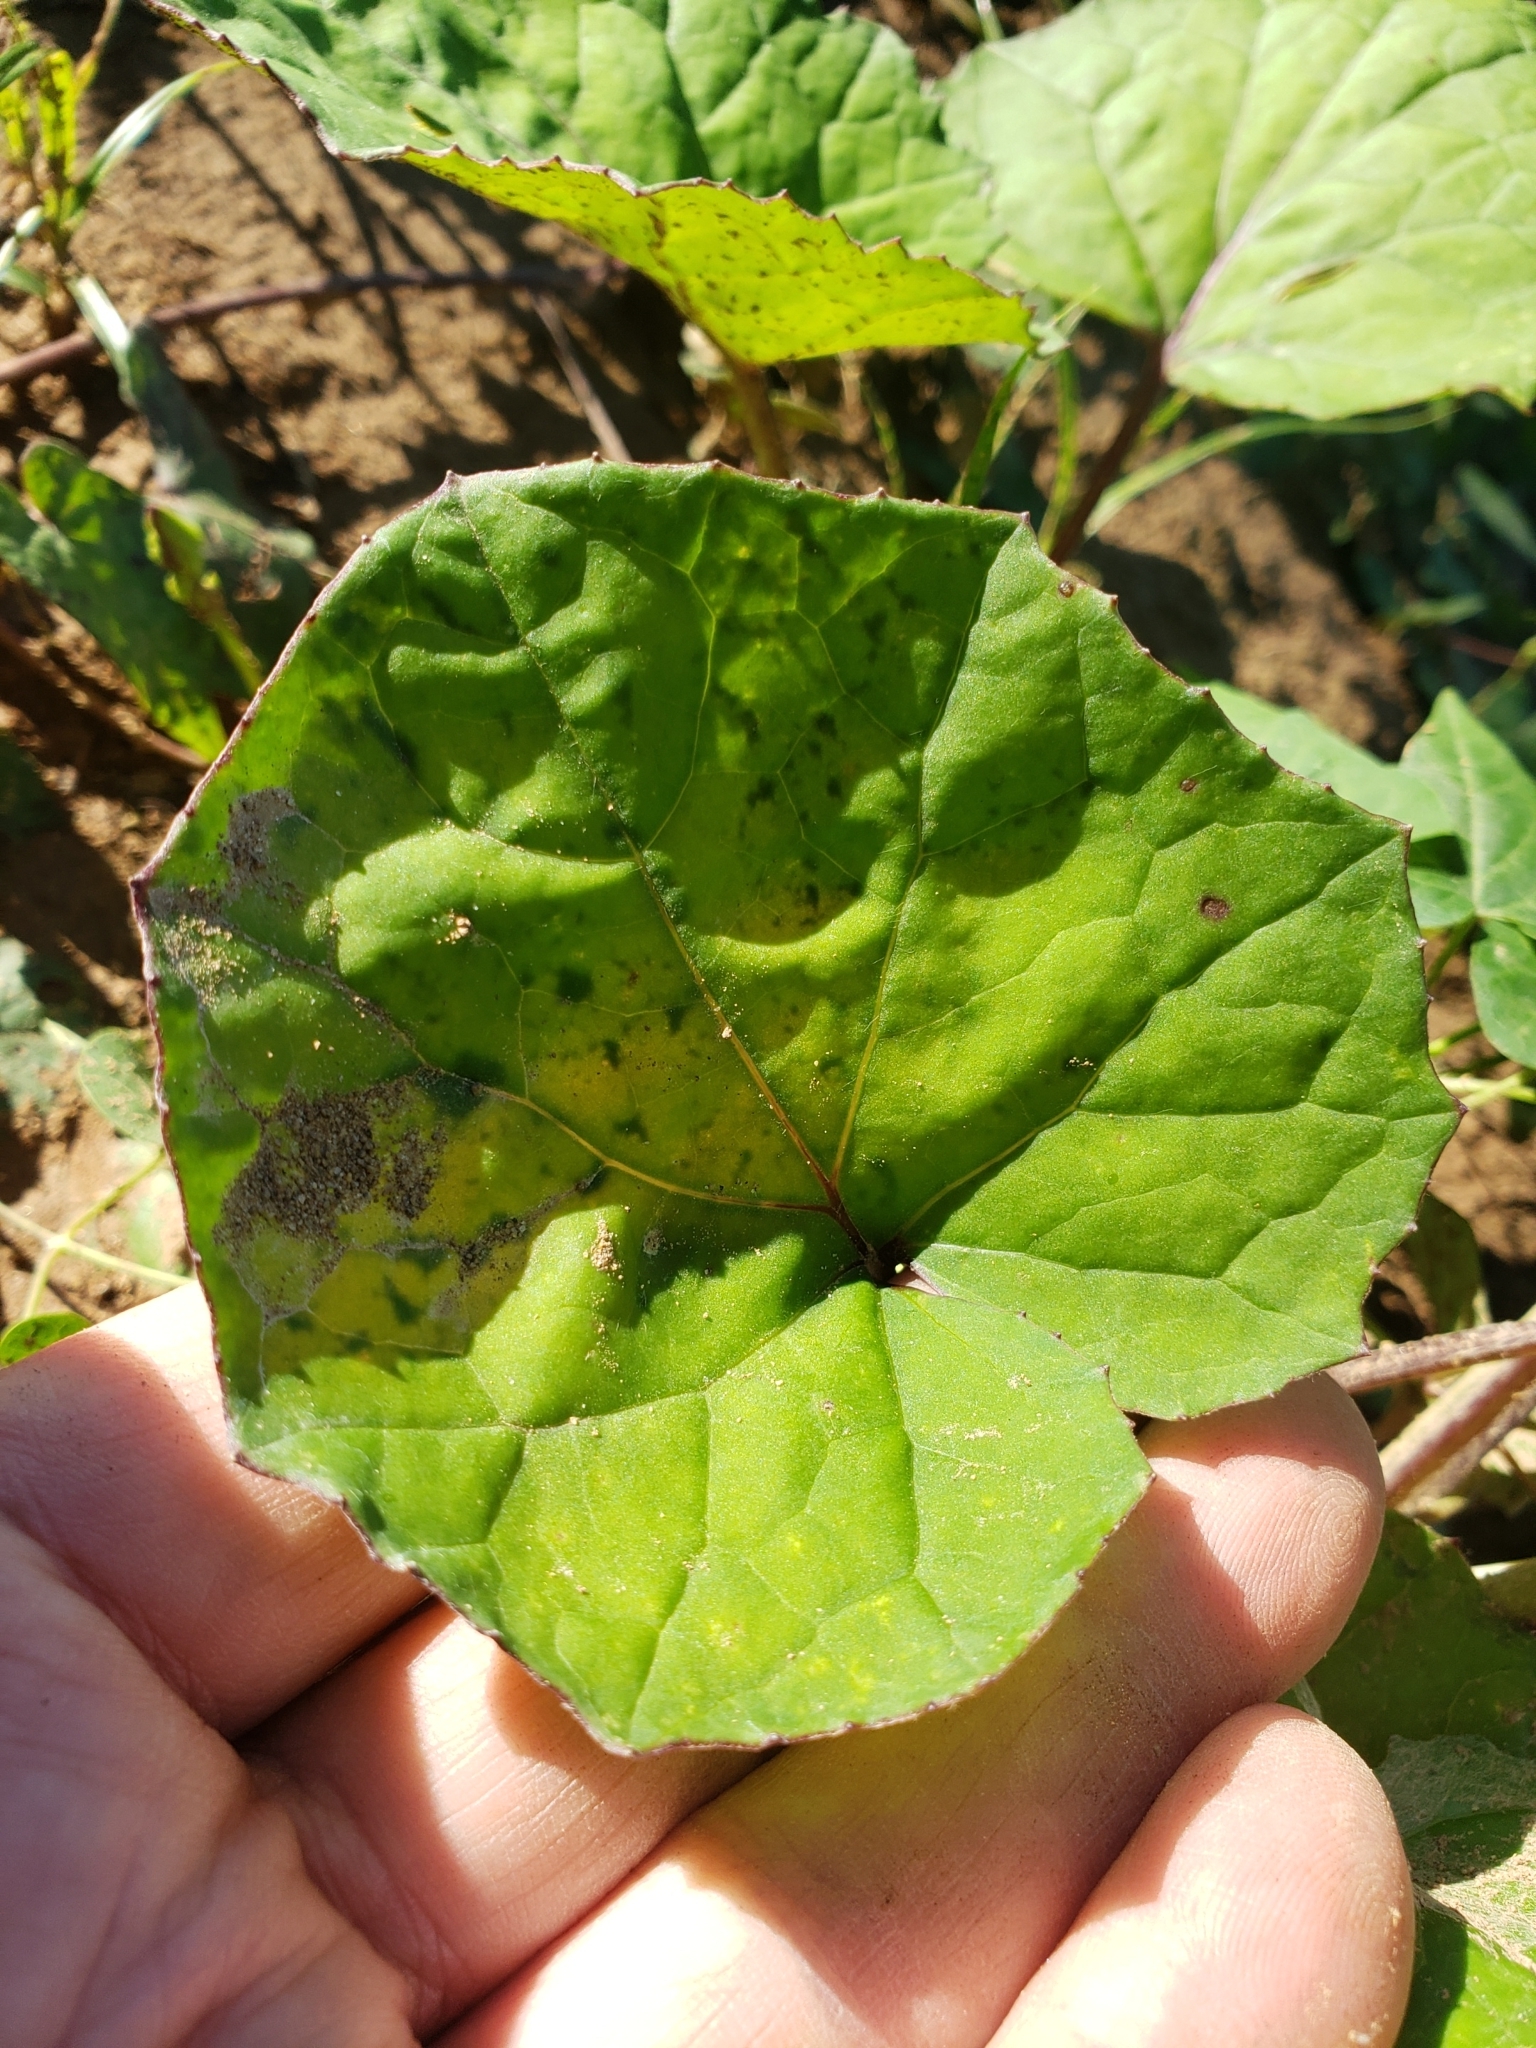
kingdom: Plantae
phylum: Tracheophyta
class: Magnoliopsida
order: Asterales
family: Asteraceae
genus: Tussilago
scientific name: Tussilago farfara
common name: Coltsfoot
